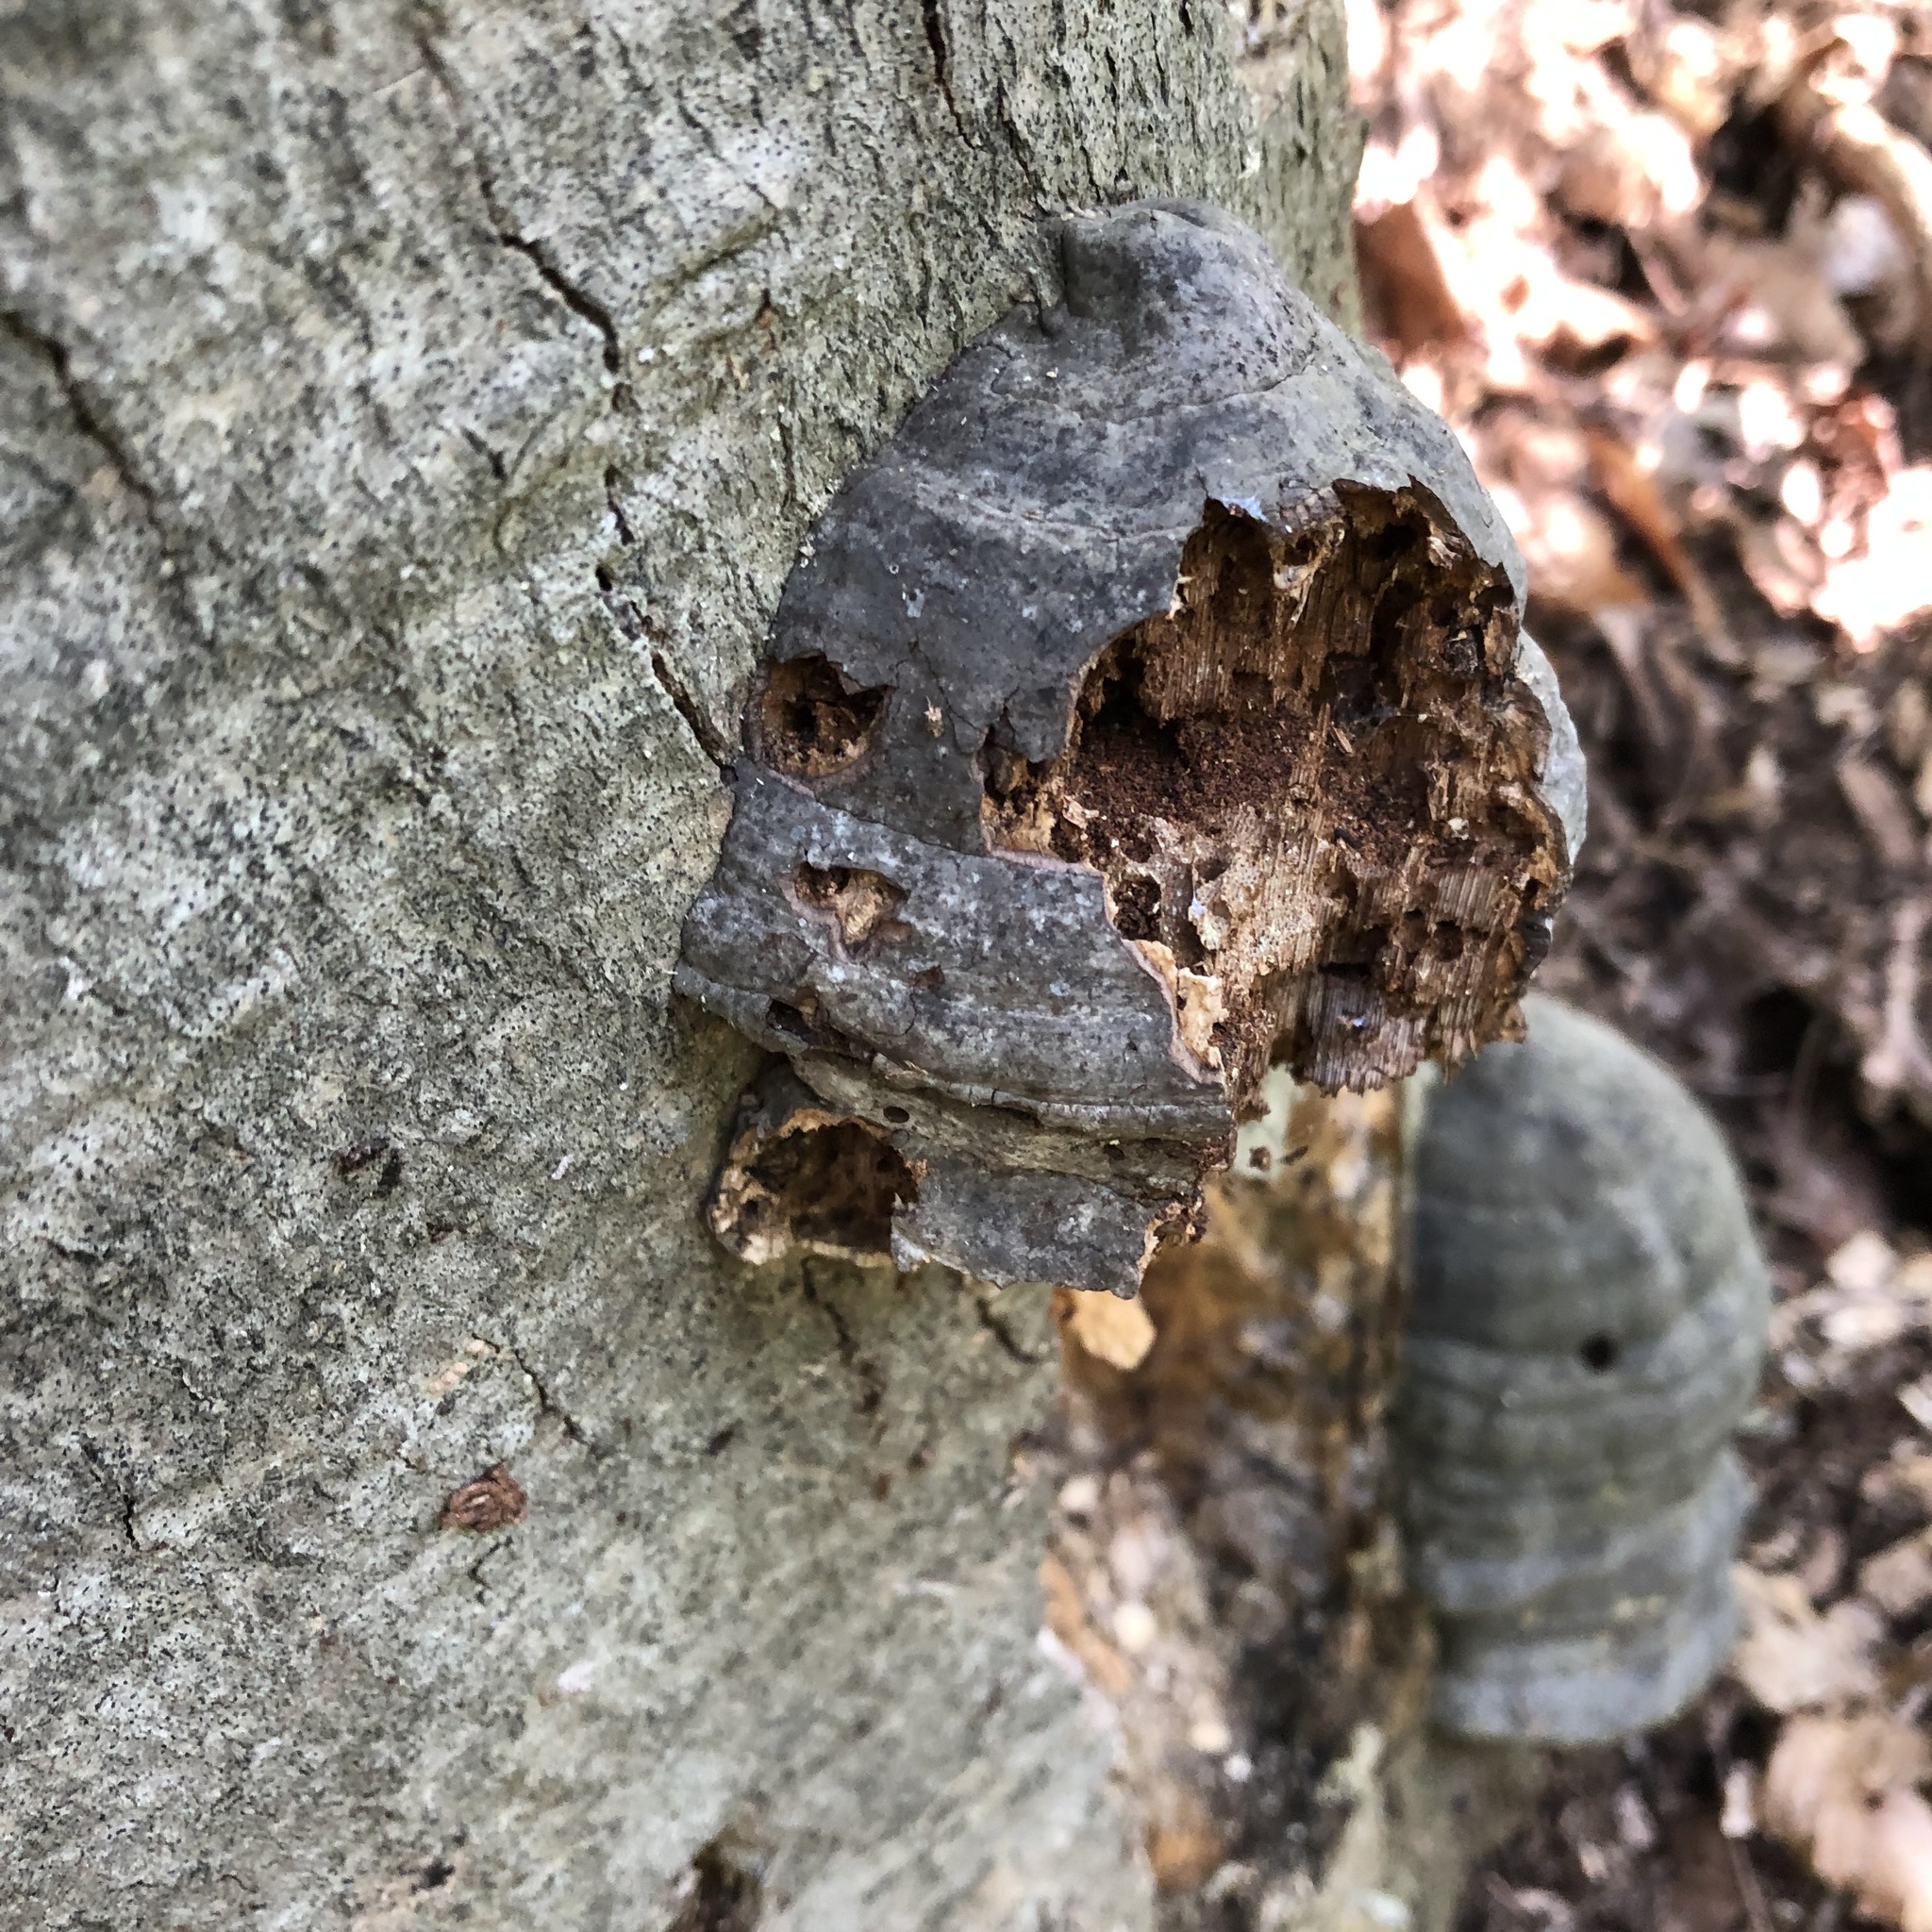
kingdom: Fungi
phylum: Basidiomycota
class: Agaricomycetes
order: Polyporales
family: Polyporaceae
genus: Fomes
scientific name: Fomes fomentarius
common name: Hoof fungus
